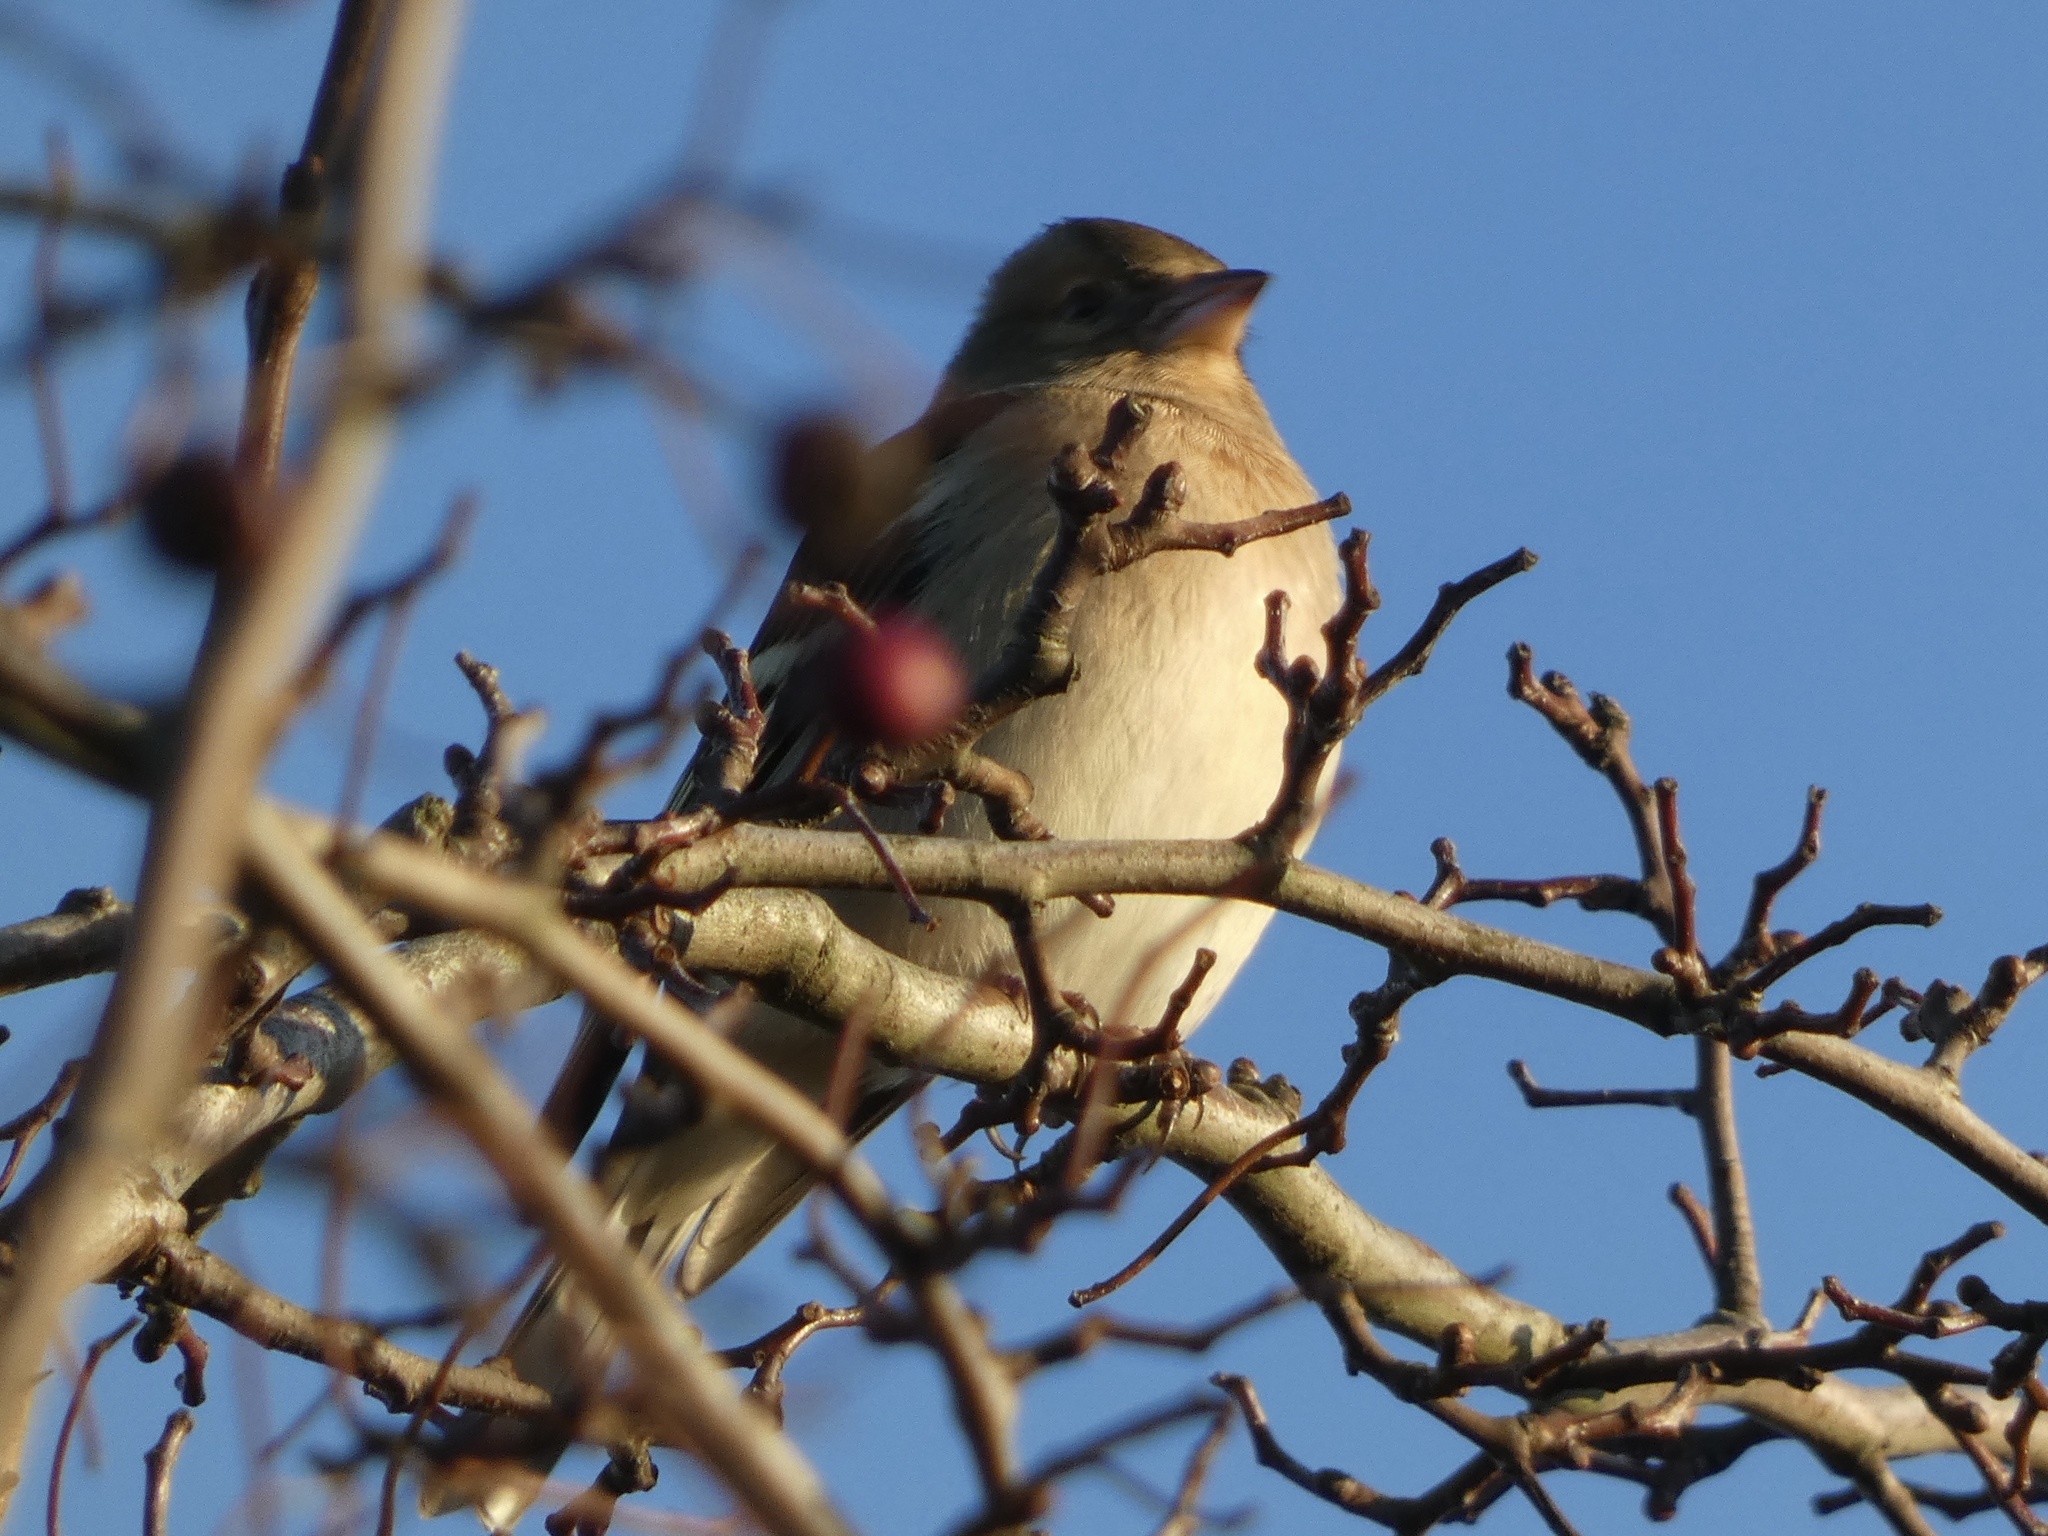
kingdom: Animalia
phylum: Chordata
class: Aves
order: Passeriformes
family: Fringillidae
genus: Fringilla
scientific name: Fringilla coelebs
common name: Common chaffinch
